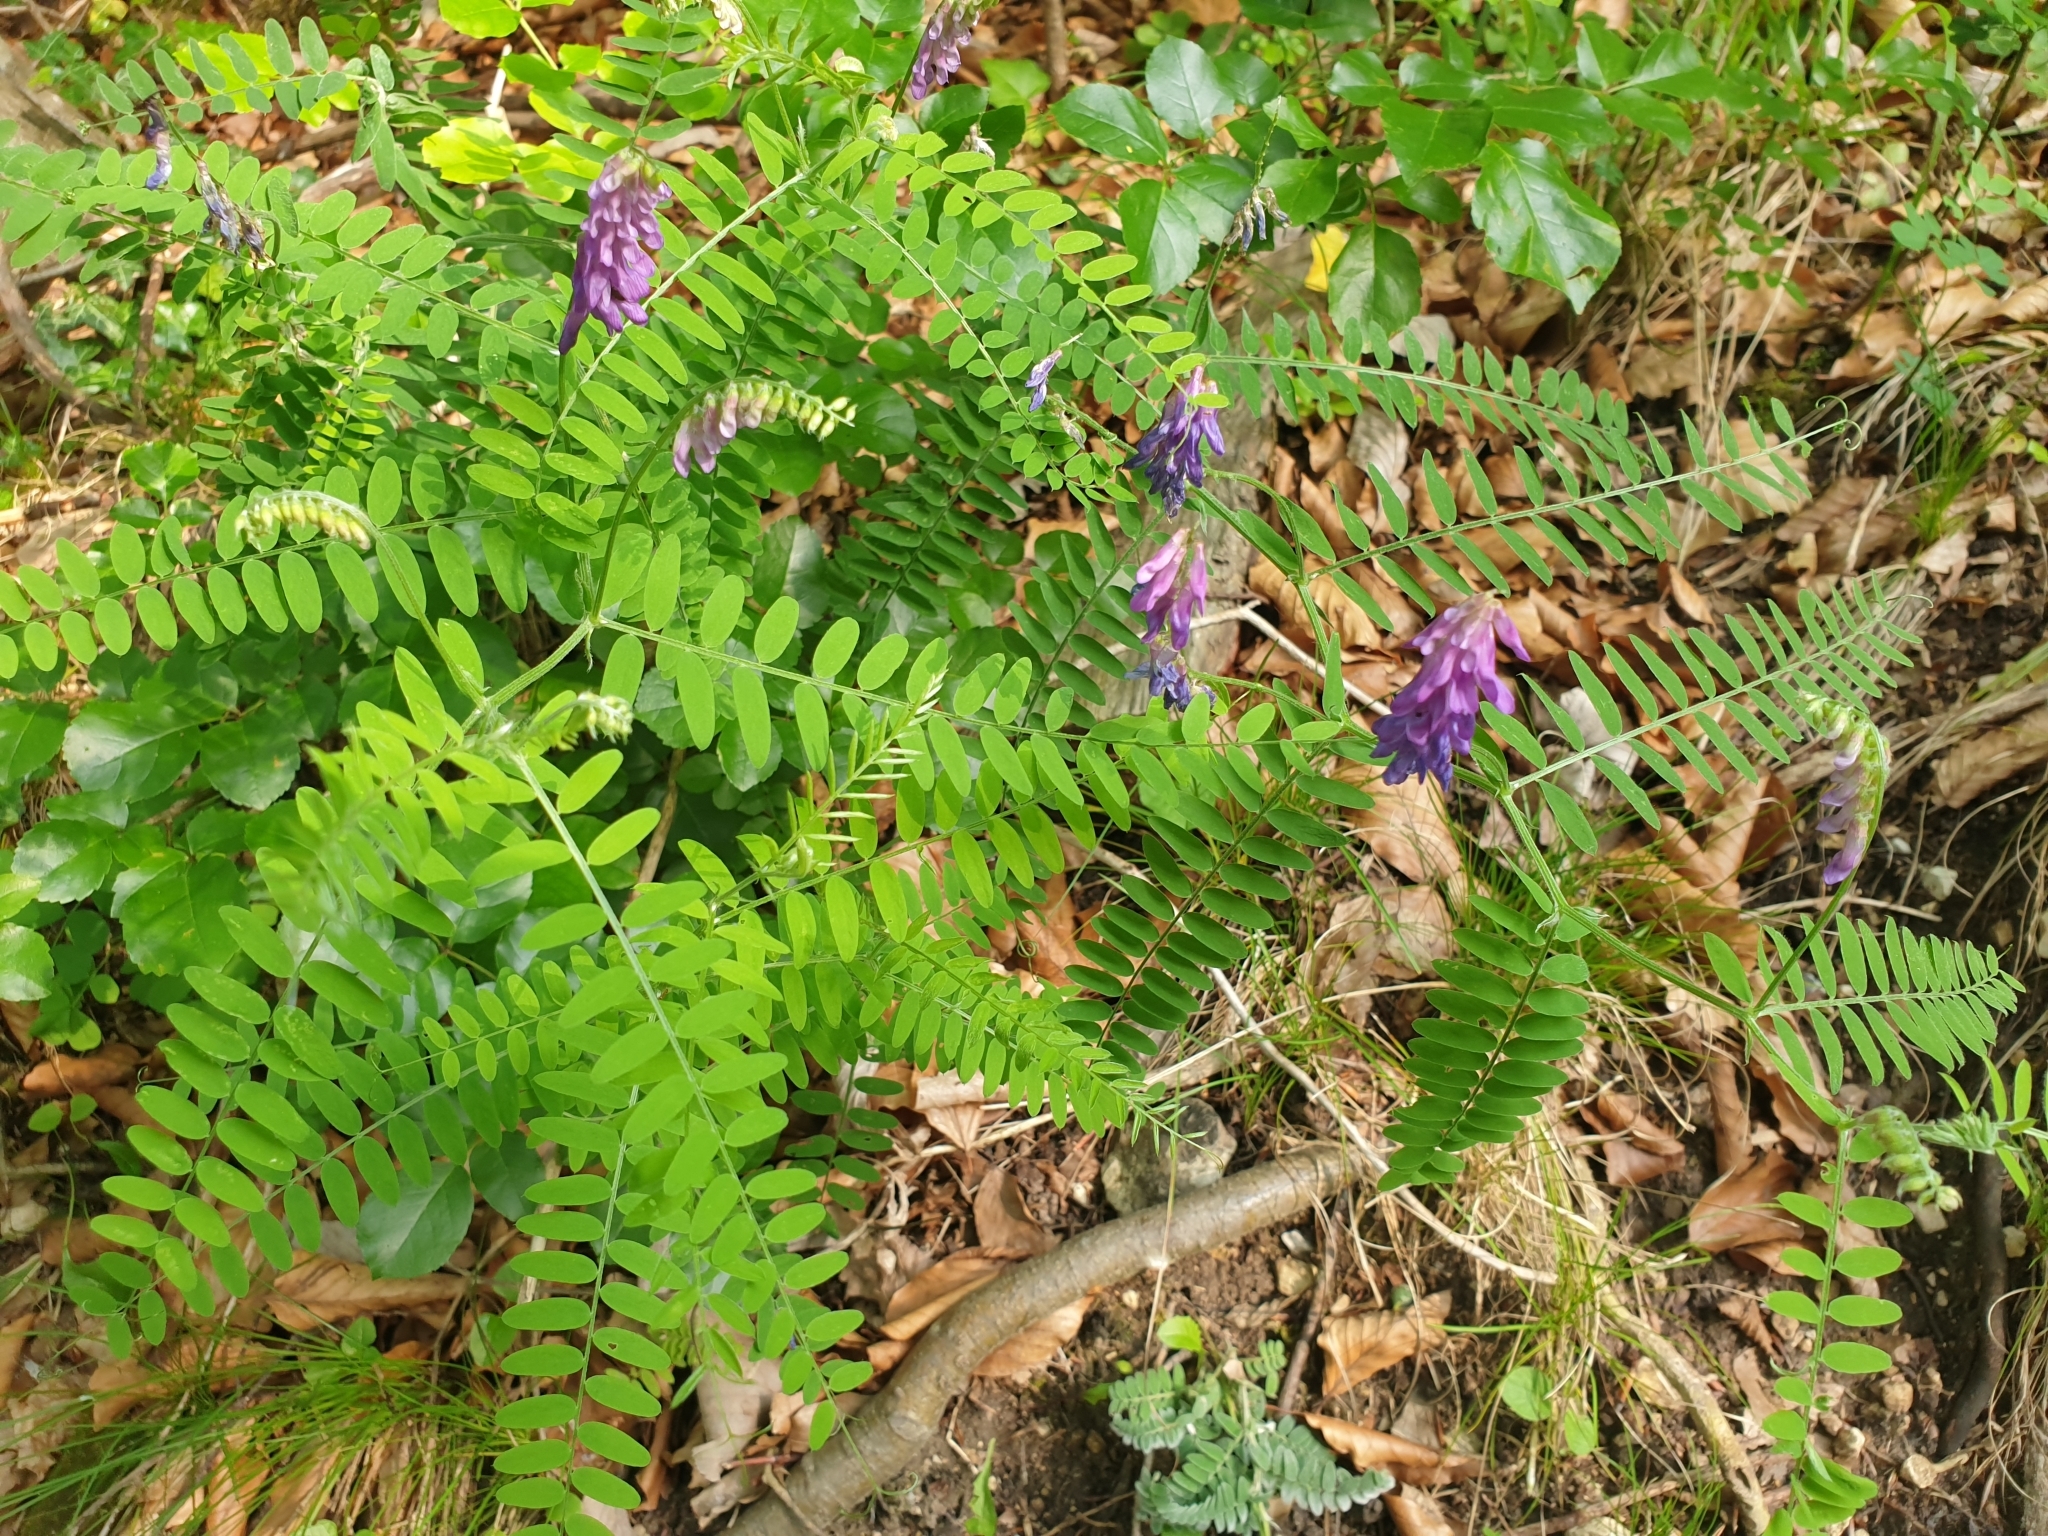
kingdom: Plantae
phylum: Tracheophyta
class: Magnoliopsida
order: Fabales
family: Fabaceae
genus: Vicia
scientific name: Vicia cracca
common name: Bird vetch
